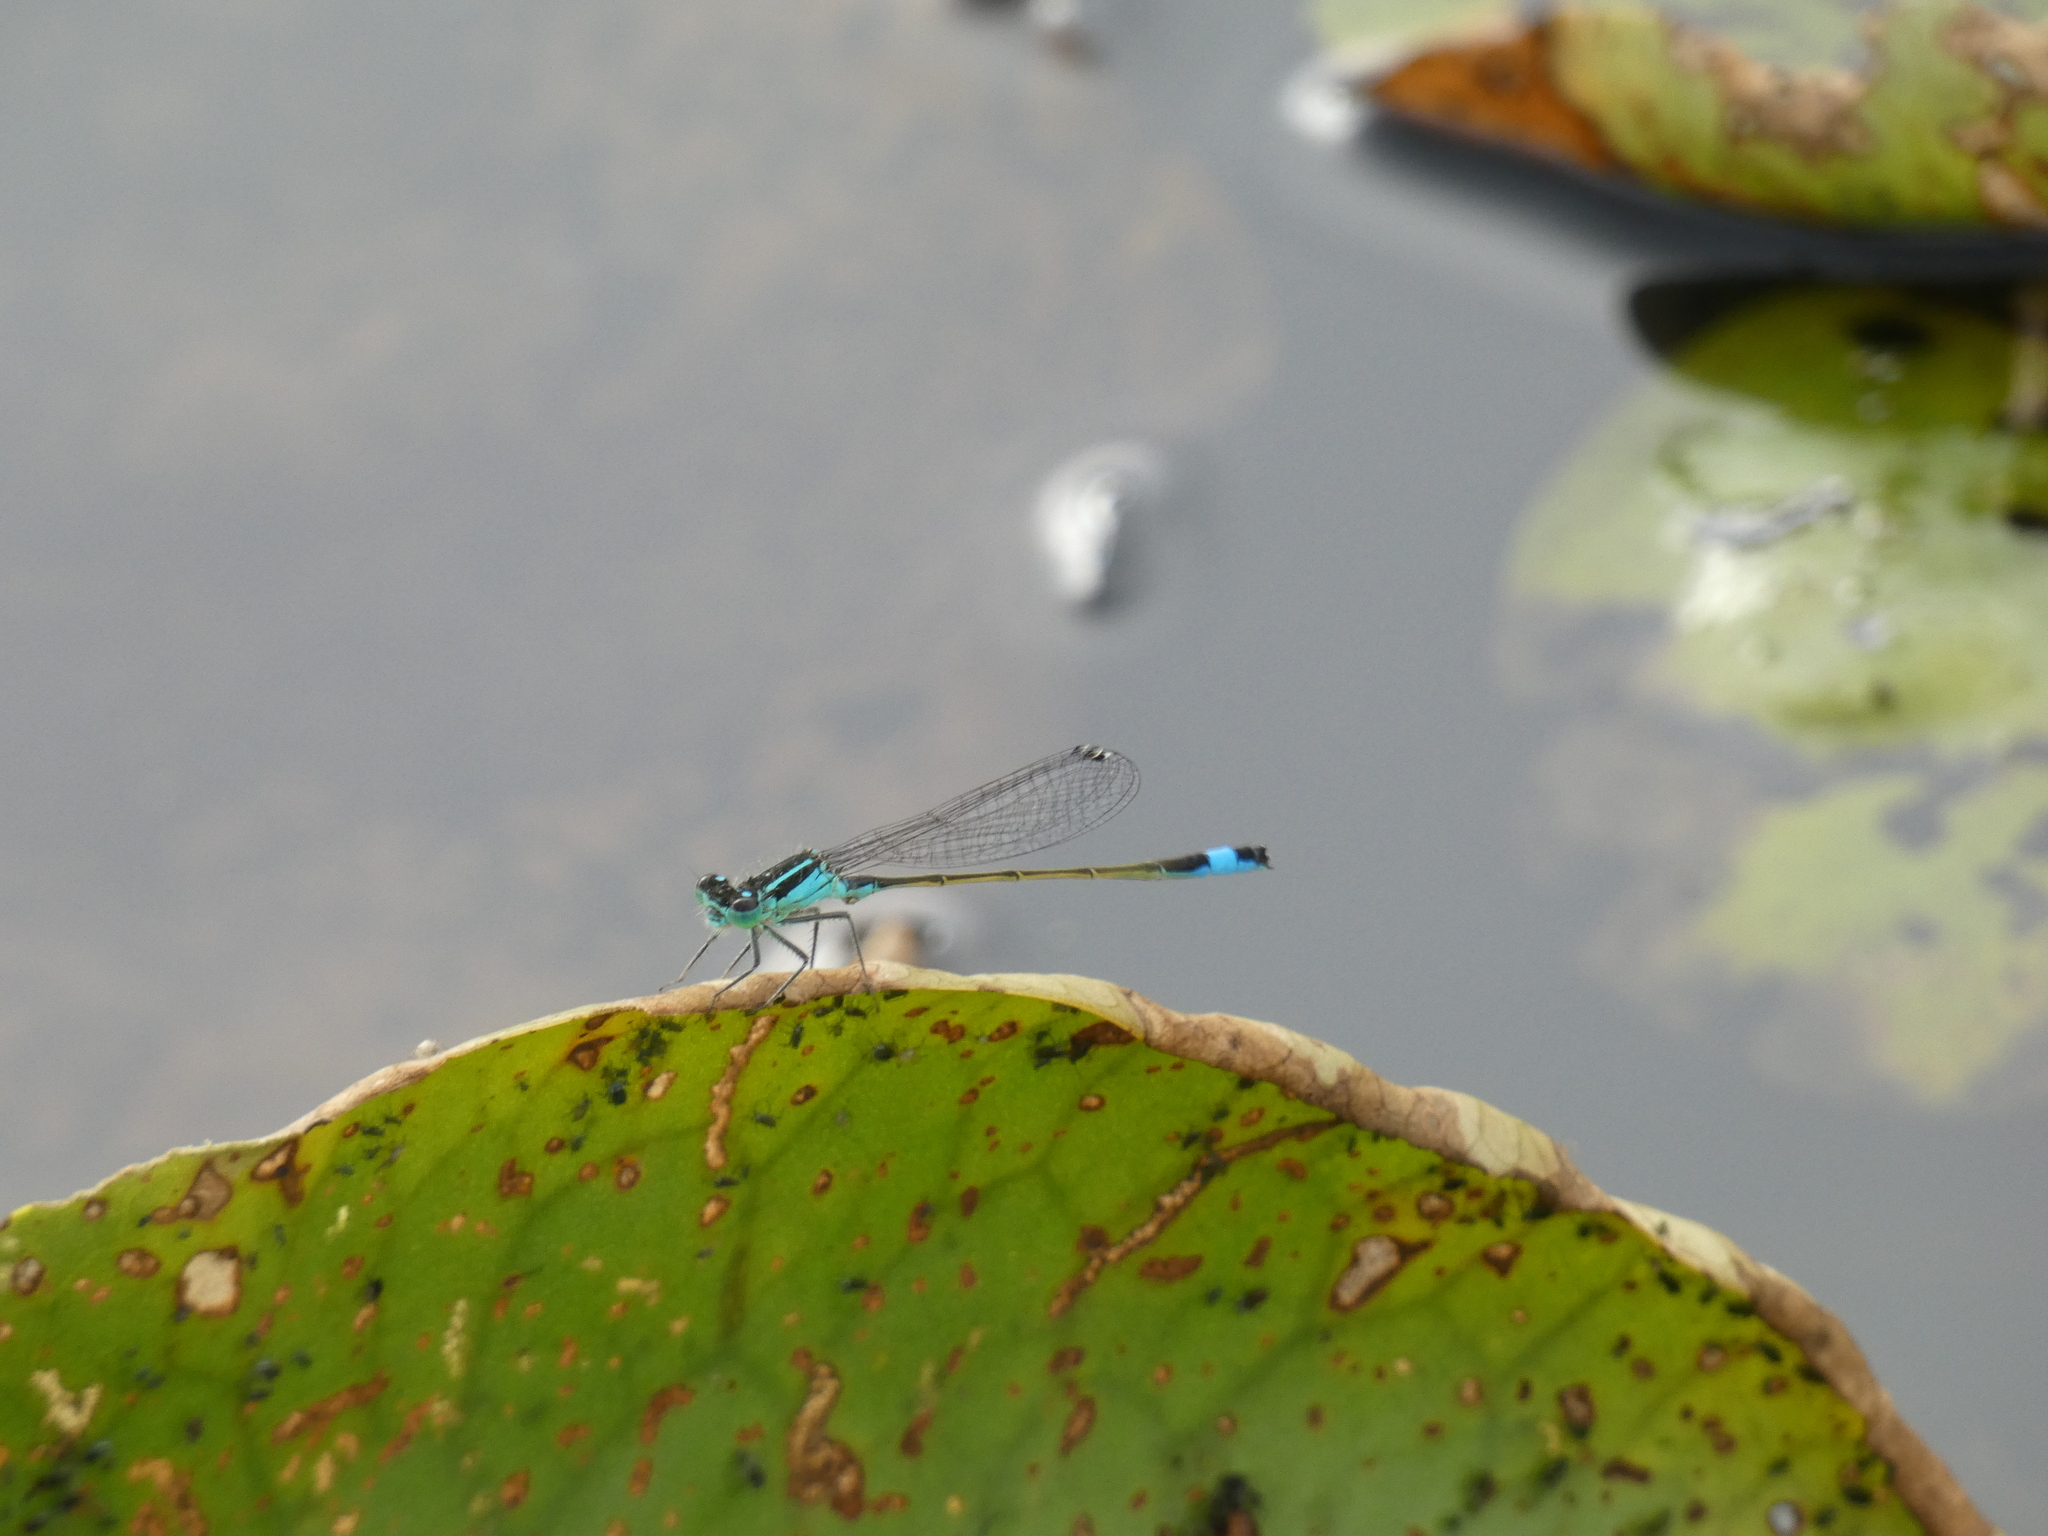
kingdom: Animalia
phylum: Arthropoda
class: Insecta
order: Odonata
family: Coenagrionidae
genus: Ischnura
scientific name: Ischnura elegans
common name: Blue-tailed damselfly
